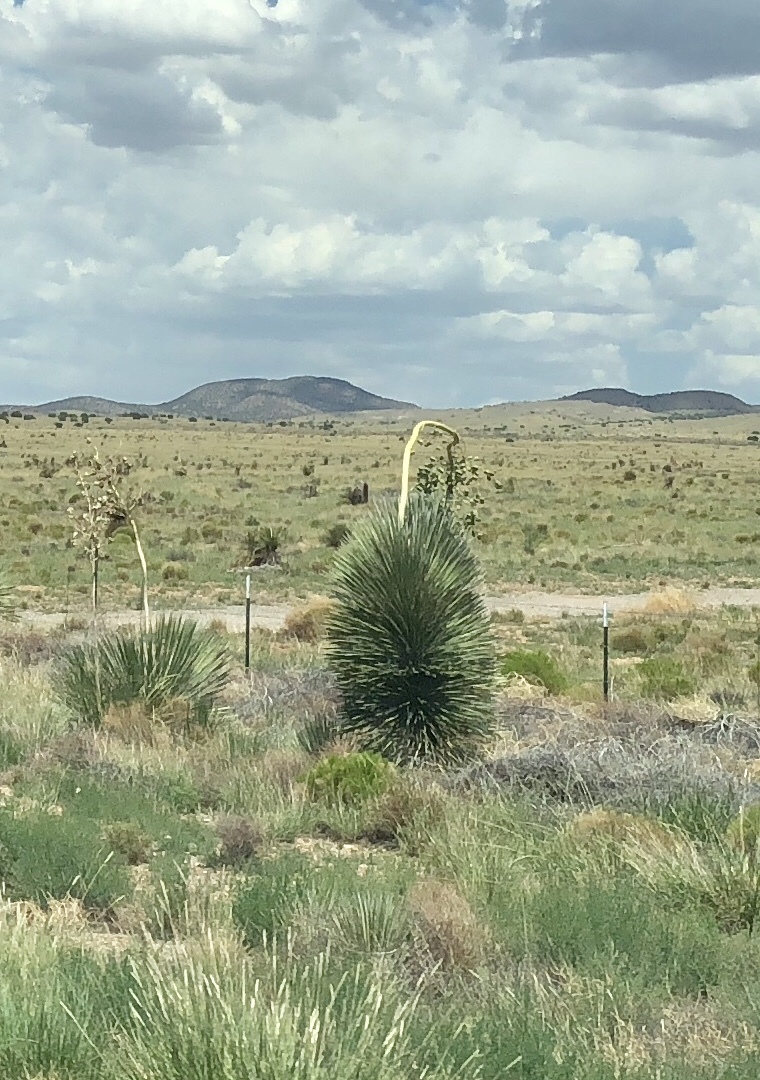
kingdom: Plantae
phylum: Tracheophyta
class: Liliopsida
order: Asparagales
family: Asparagaceae
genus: Yucca
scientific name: Yucca elata
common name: Palmella
